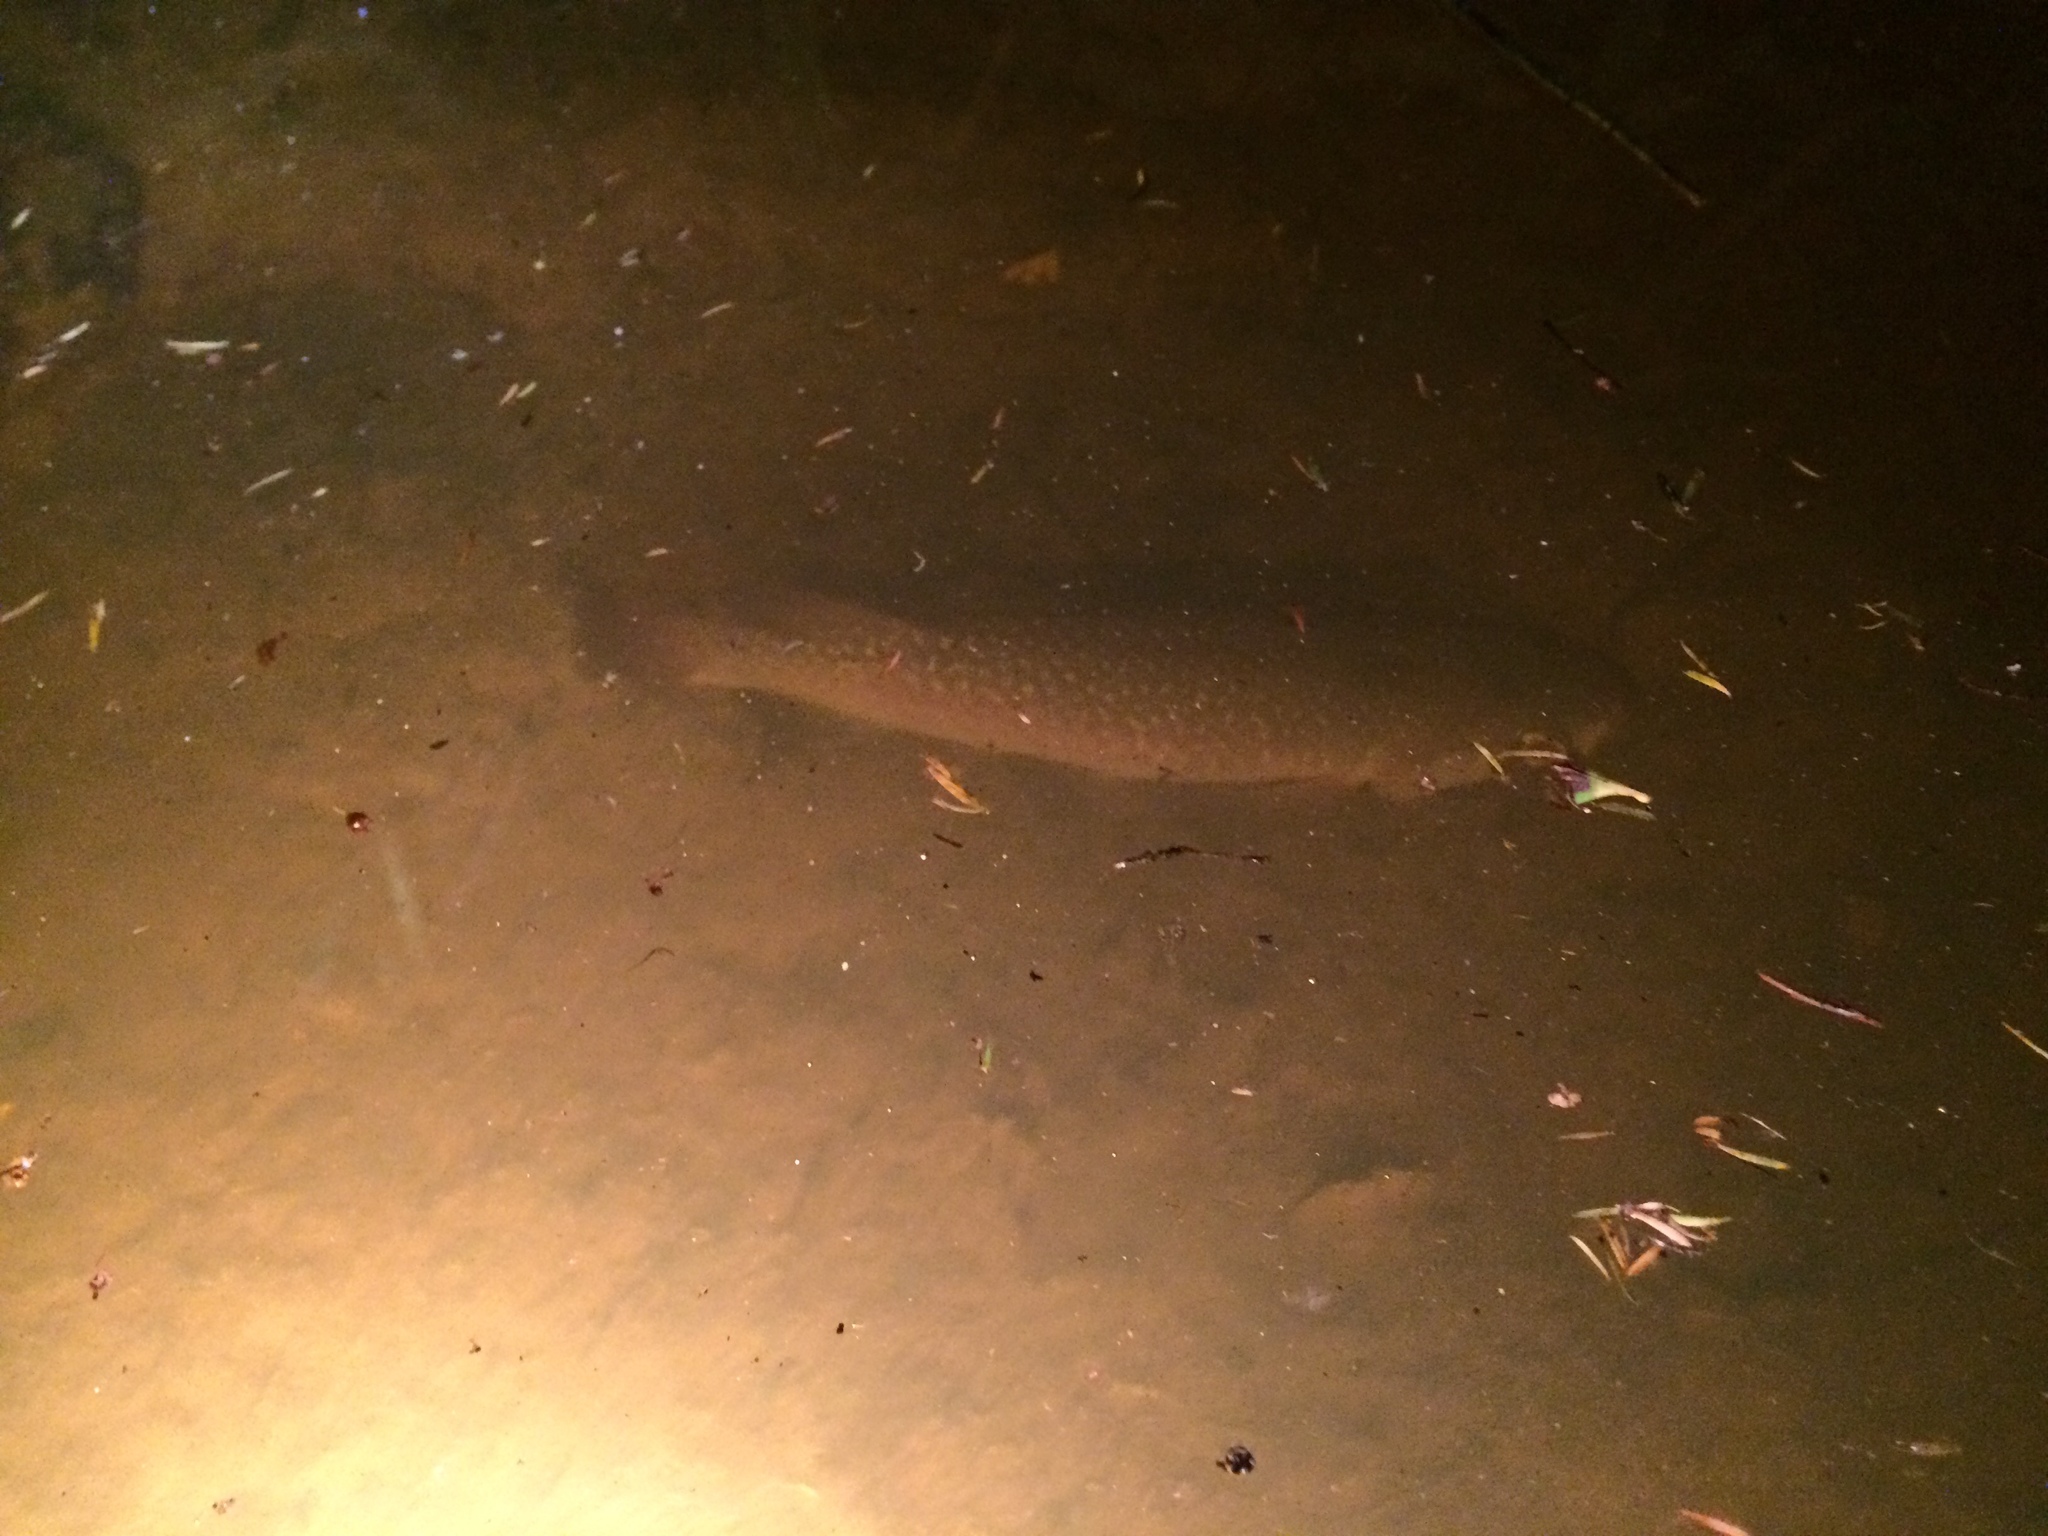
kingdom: Animalia
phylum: Chordata
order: Osmeriformes
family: Galaxiidae
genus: Galaxias
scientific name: Galaxias argenteus
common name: Giant kokopu
